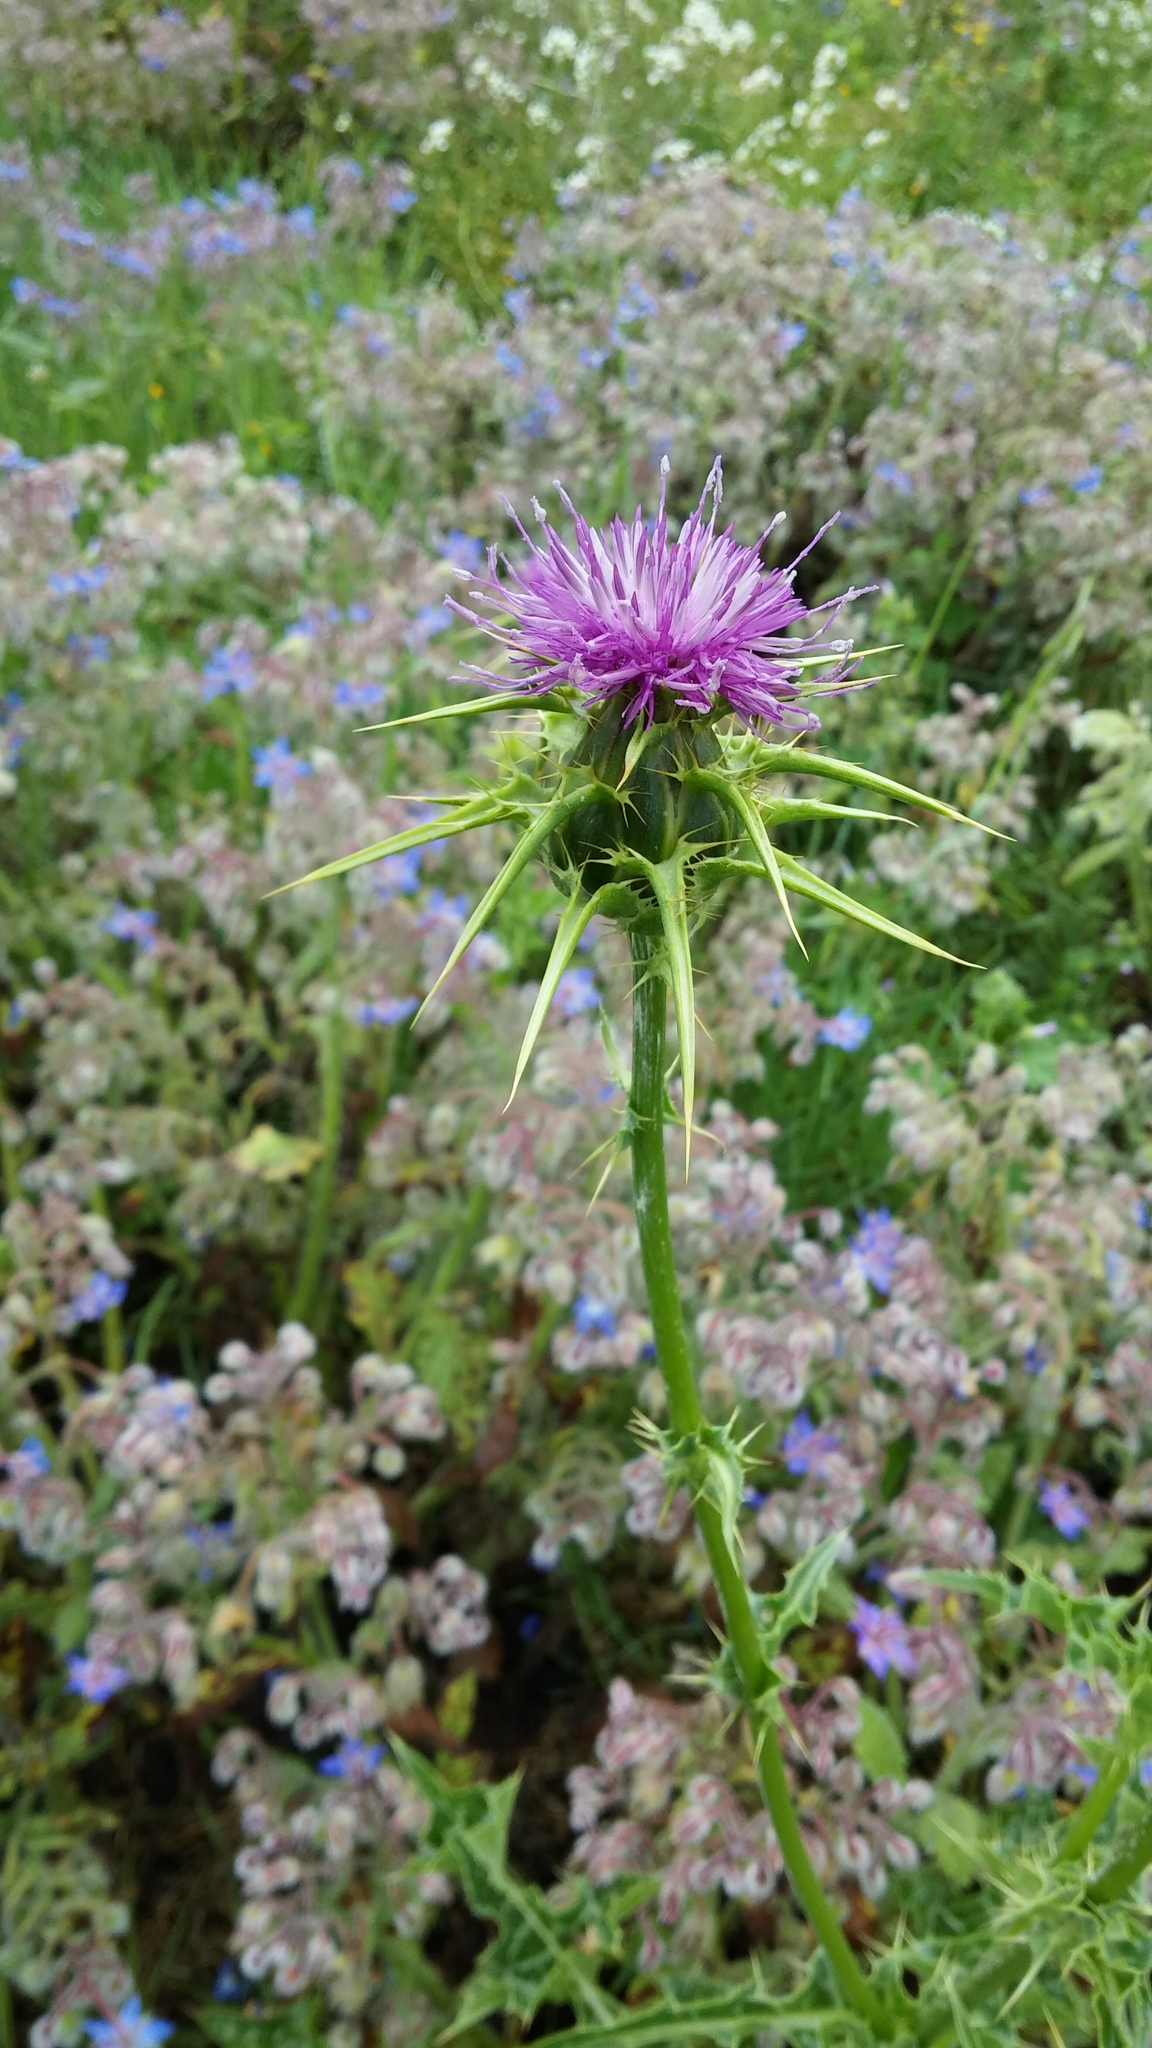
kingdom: Plantae
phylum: Tracheophyta
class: Magnoliopsida
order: Asterales
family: Asteraceae
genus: Silybum
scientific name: Silybum marianum
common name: Milk thistle
